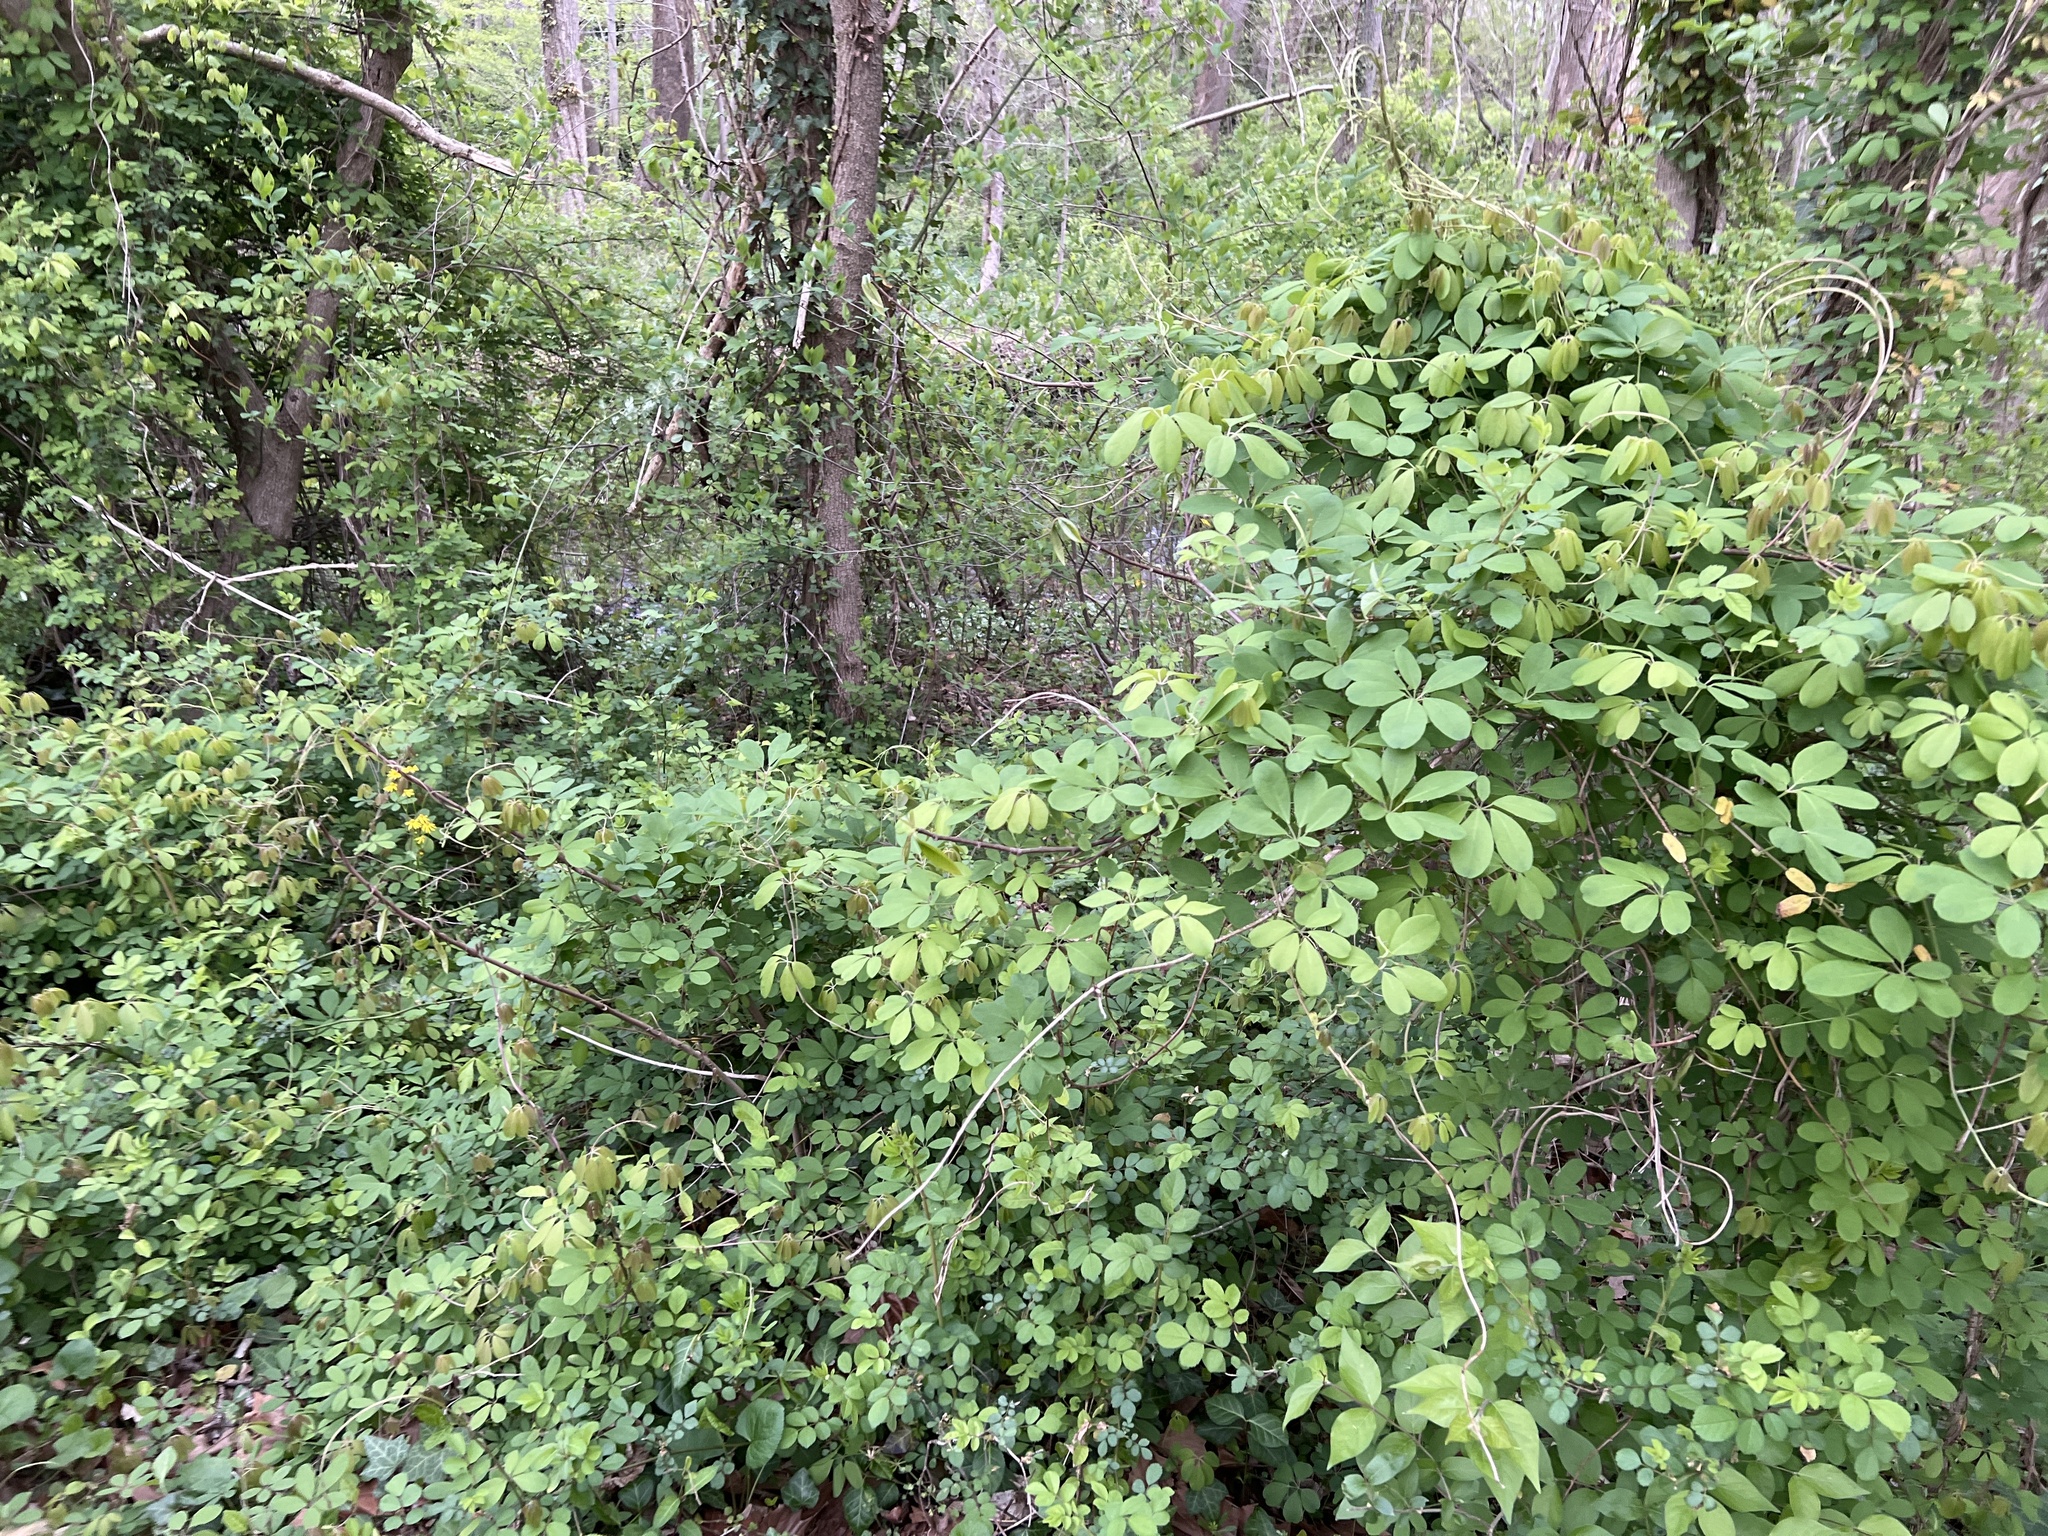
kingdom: Plantae
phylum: Tracheophyta
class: Magnoliopsida
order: Ranunculales
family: Lardizabalaceae
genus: Akebia
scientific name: Akebia quinata
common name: Five-leaf akebia
